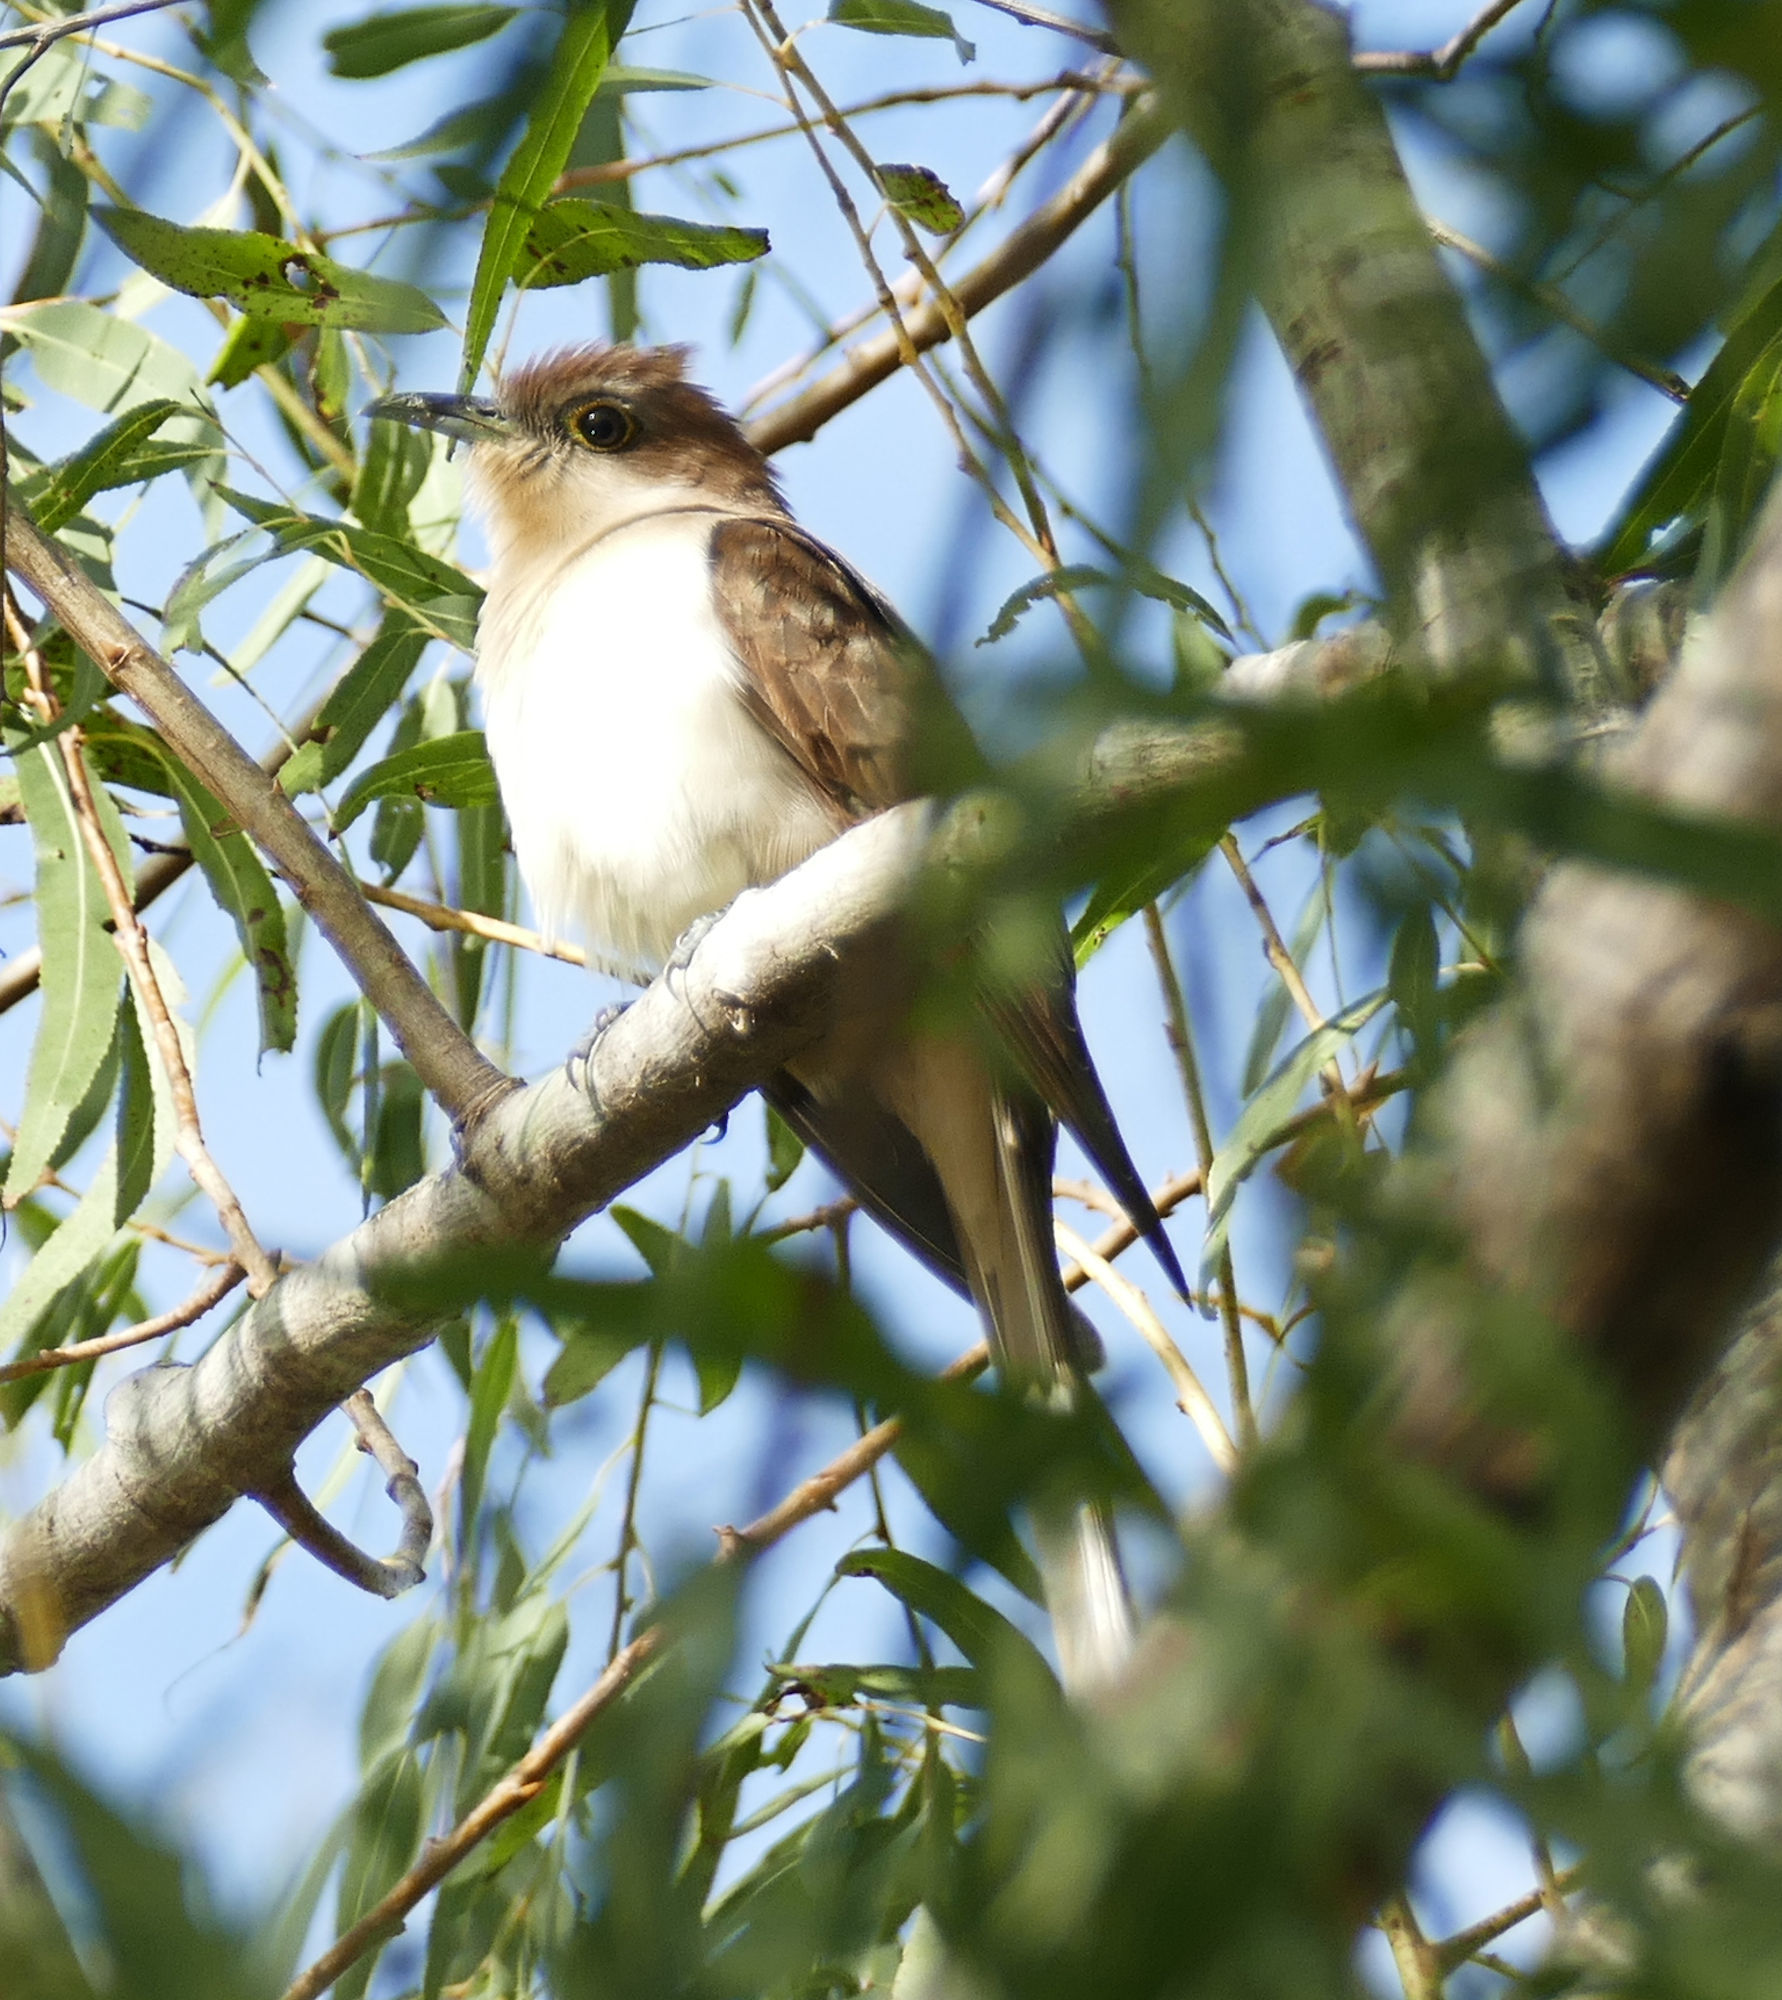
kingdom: Animalia
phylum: Chordata
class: Aves
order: Cuculiformes
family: Cuculidae
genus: Coccyzus
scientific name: Coccyzus erythropthalmus
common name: Black-billed cuckoo
